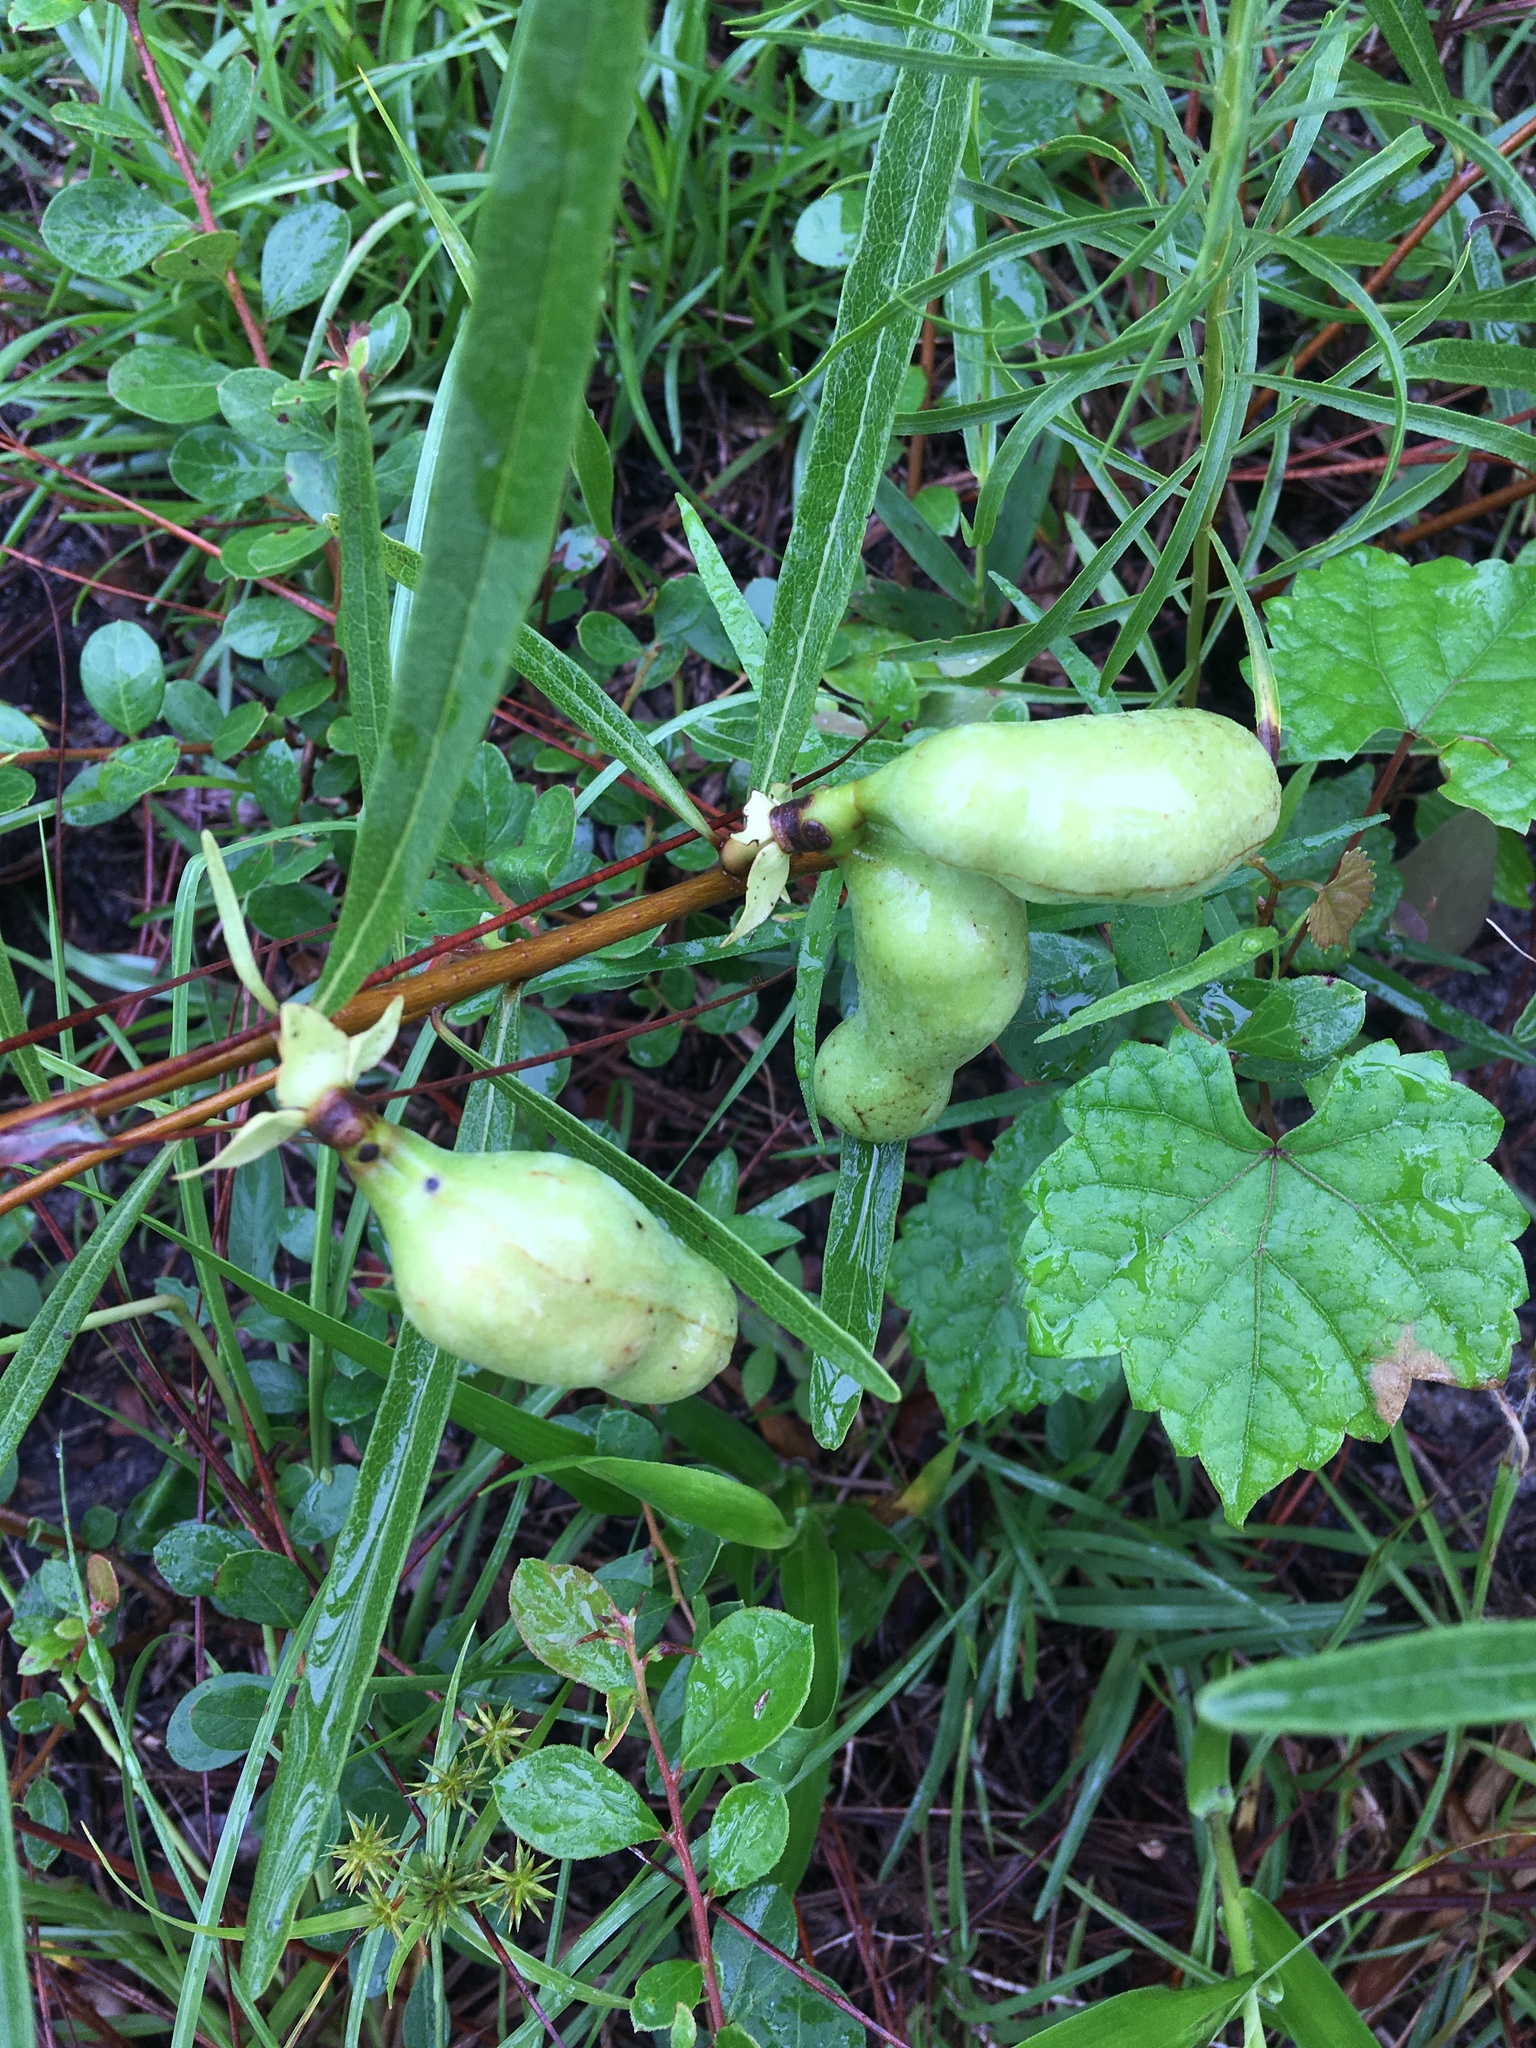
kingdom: Plantae
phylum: Tracheophyta
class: Magnoliopsida
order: Magnoliales
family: Annonaceae
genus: Asimina
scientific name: Asimina longifolia
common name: Polecatbush
